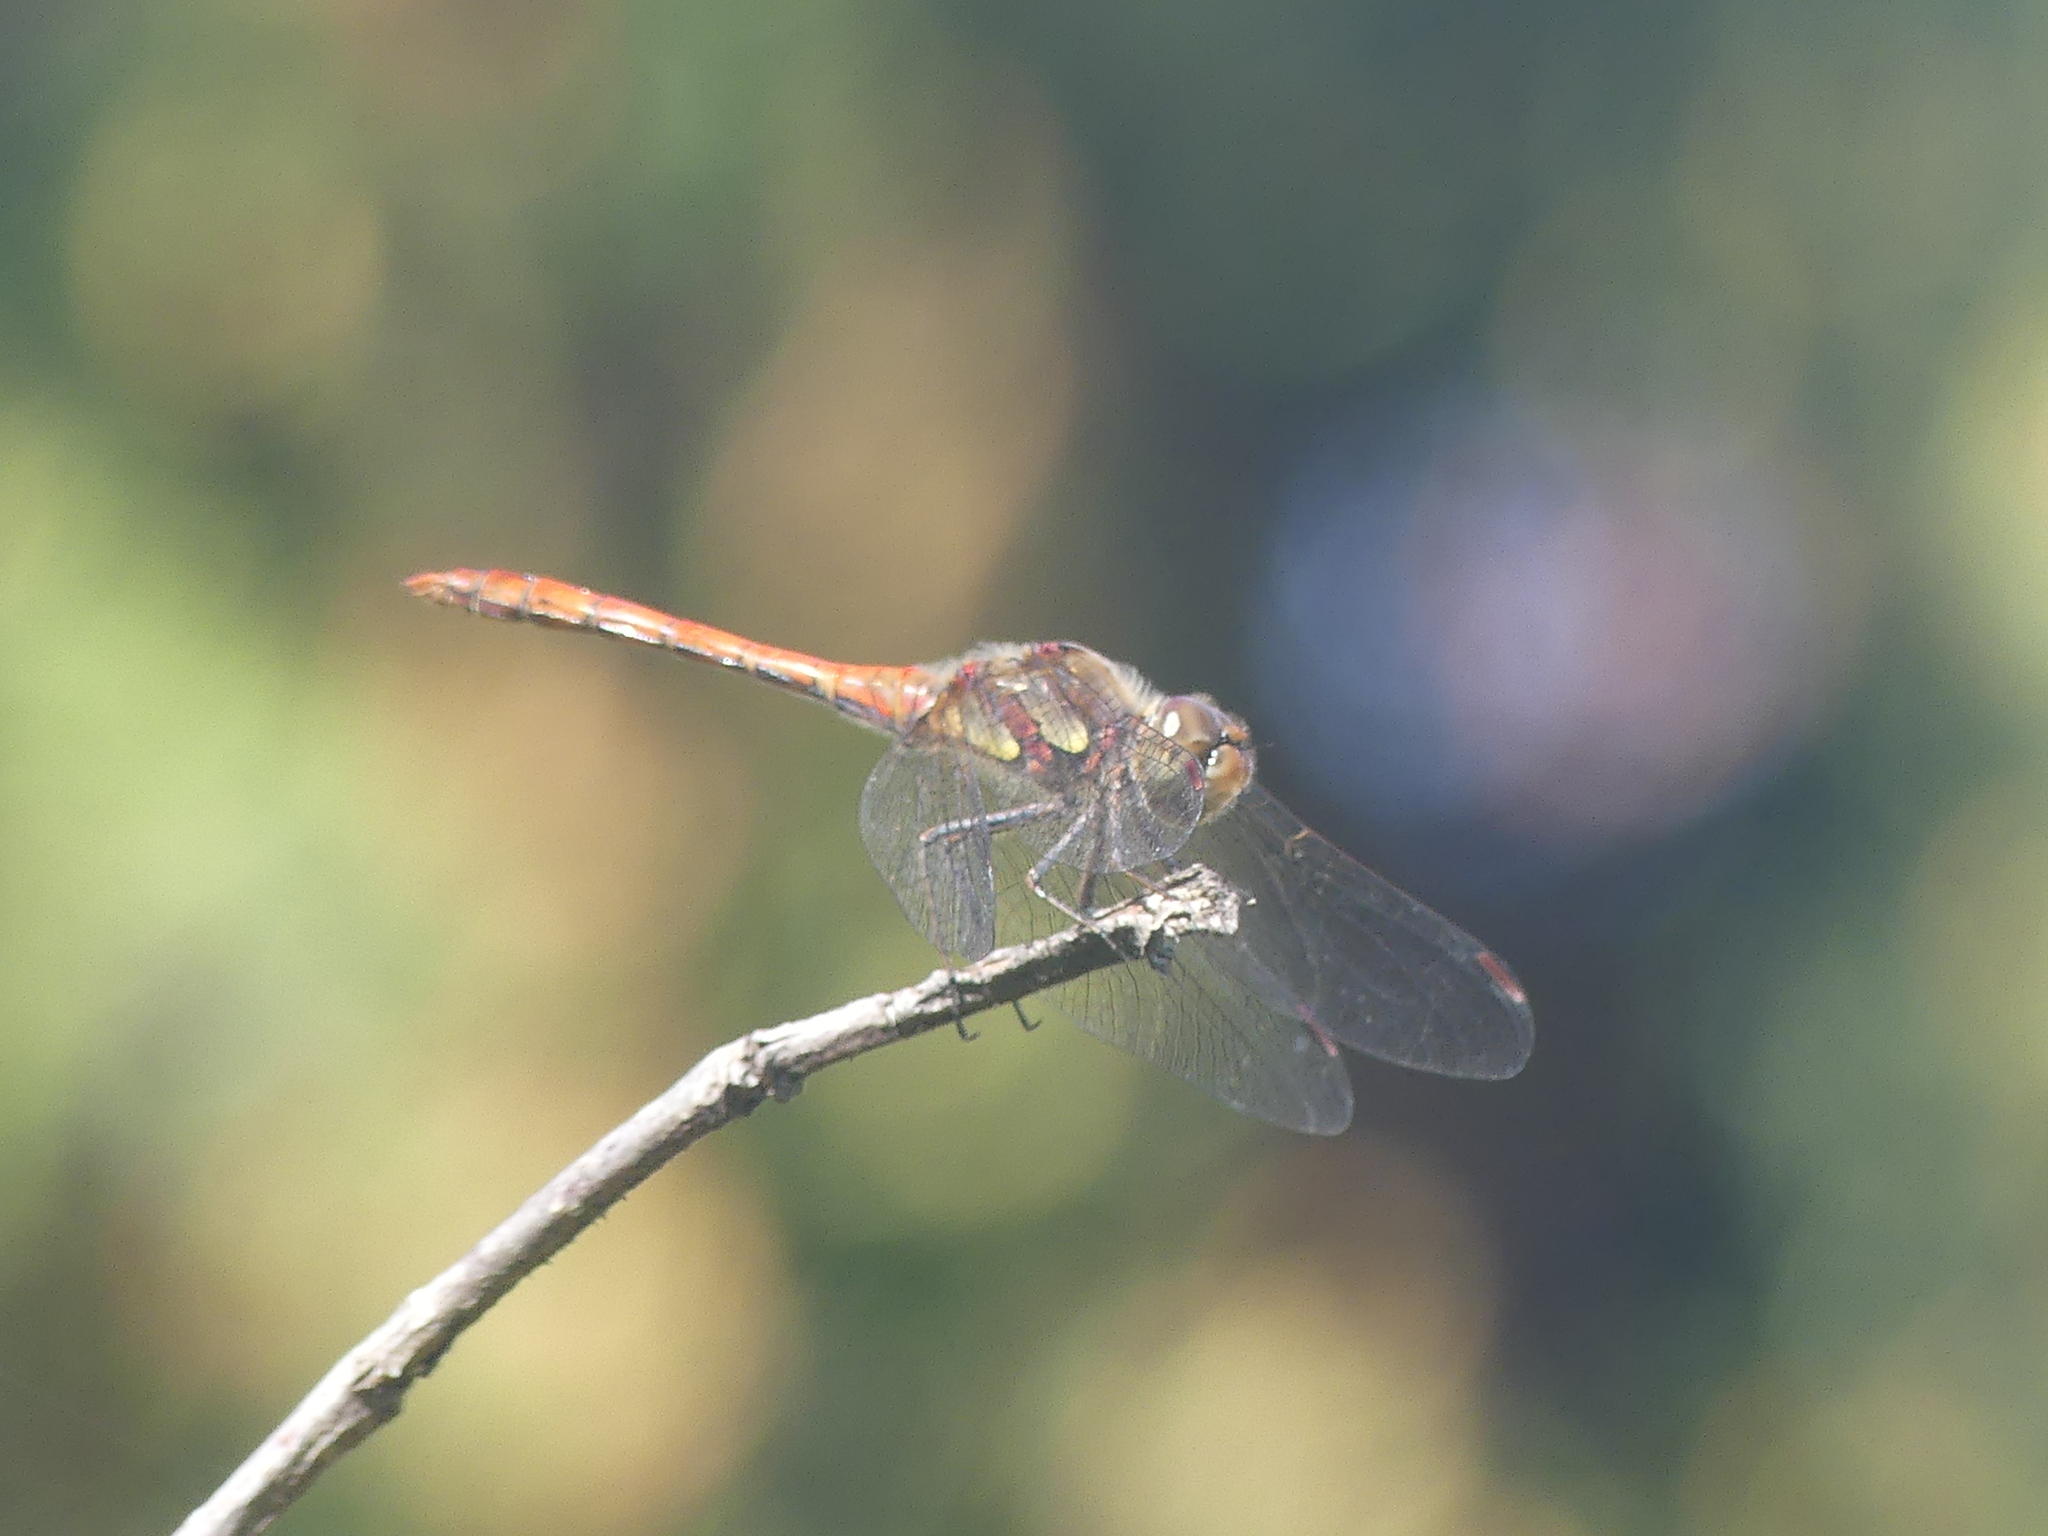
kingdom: Animalia
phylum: Arthropoda
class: Insecta
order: Odonata
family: Libellulidae
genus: Sympetrum
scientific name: Sympetrum striolatum
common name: Common darter
